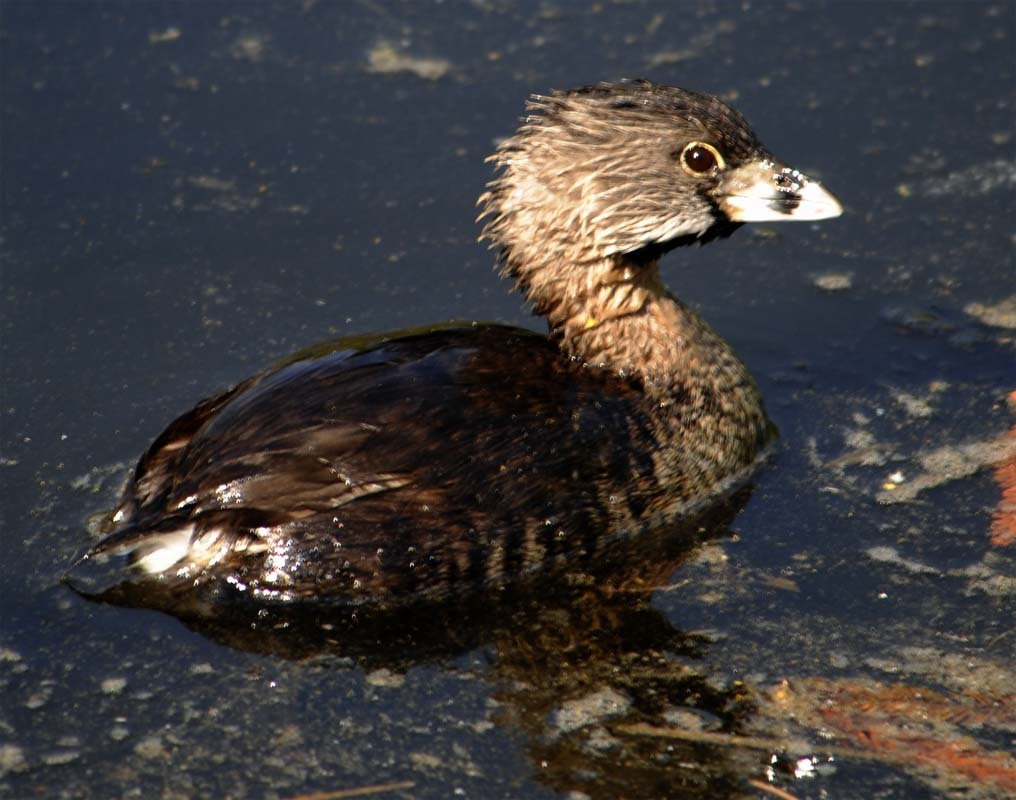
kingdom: Animalia
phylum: Chordata
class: Aves
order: Podicipediformes
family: Podicipedidae
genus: Podilymbus
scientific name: Podilymbus podiceps
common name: Pied-billed grebe
